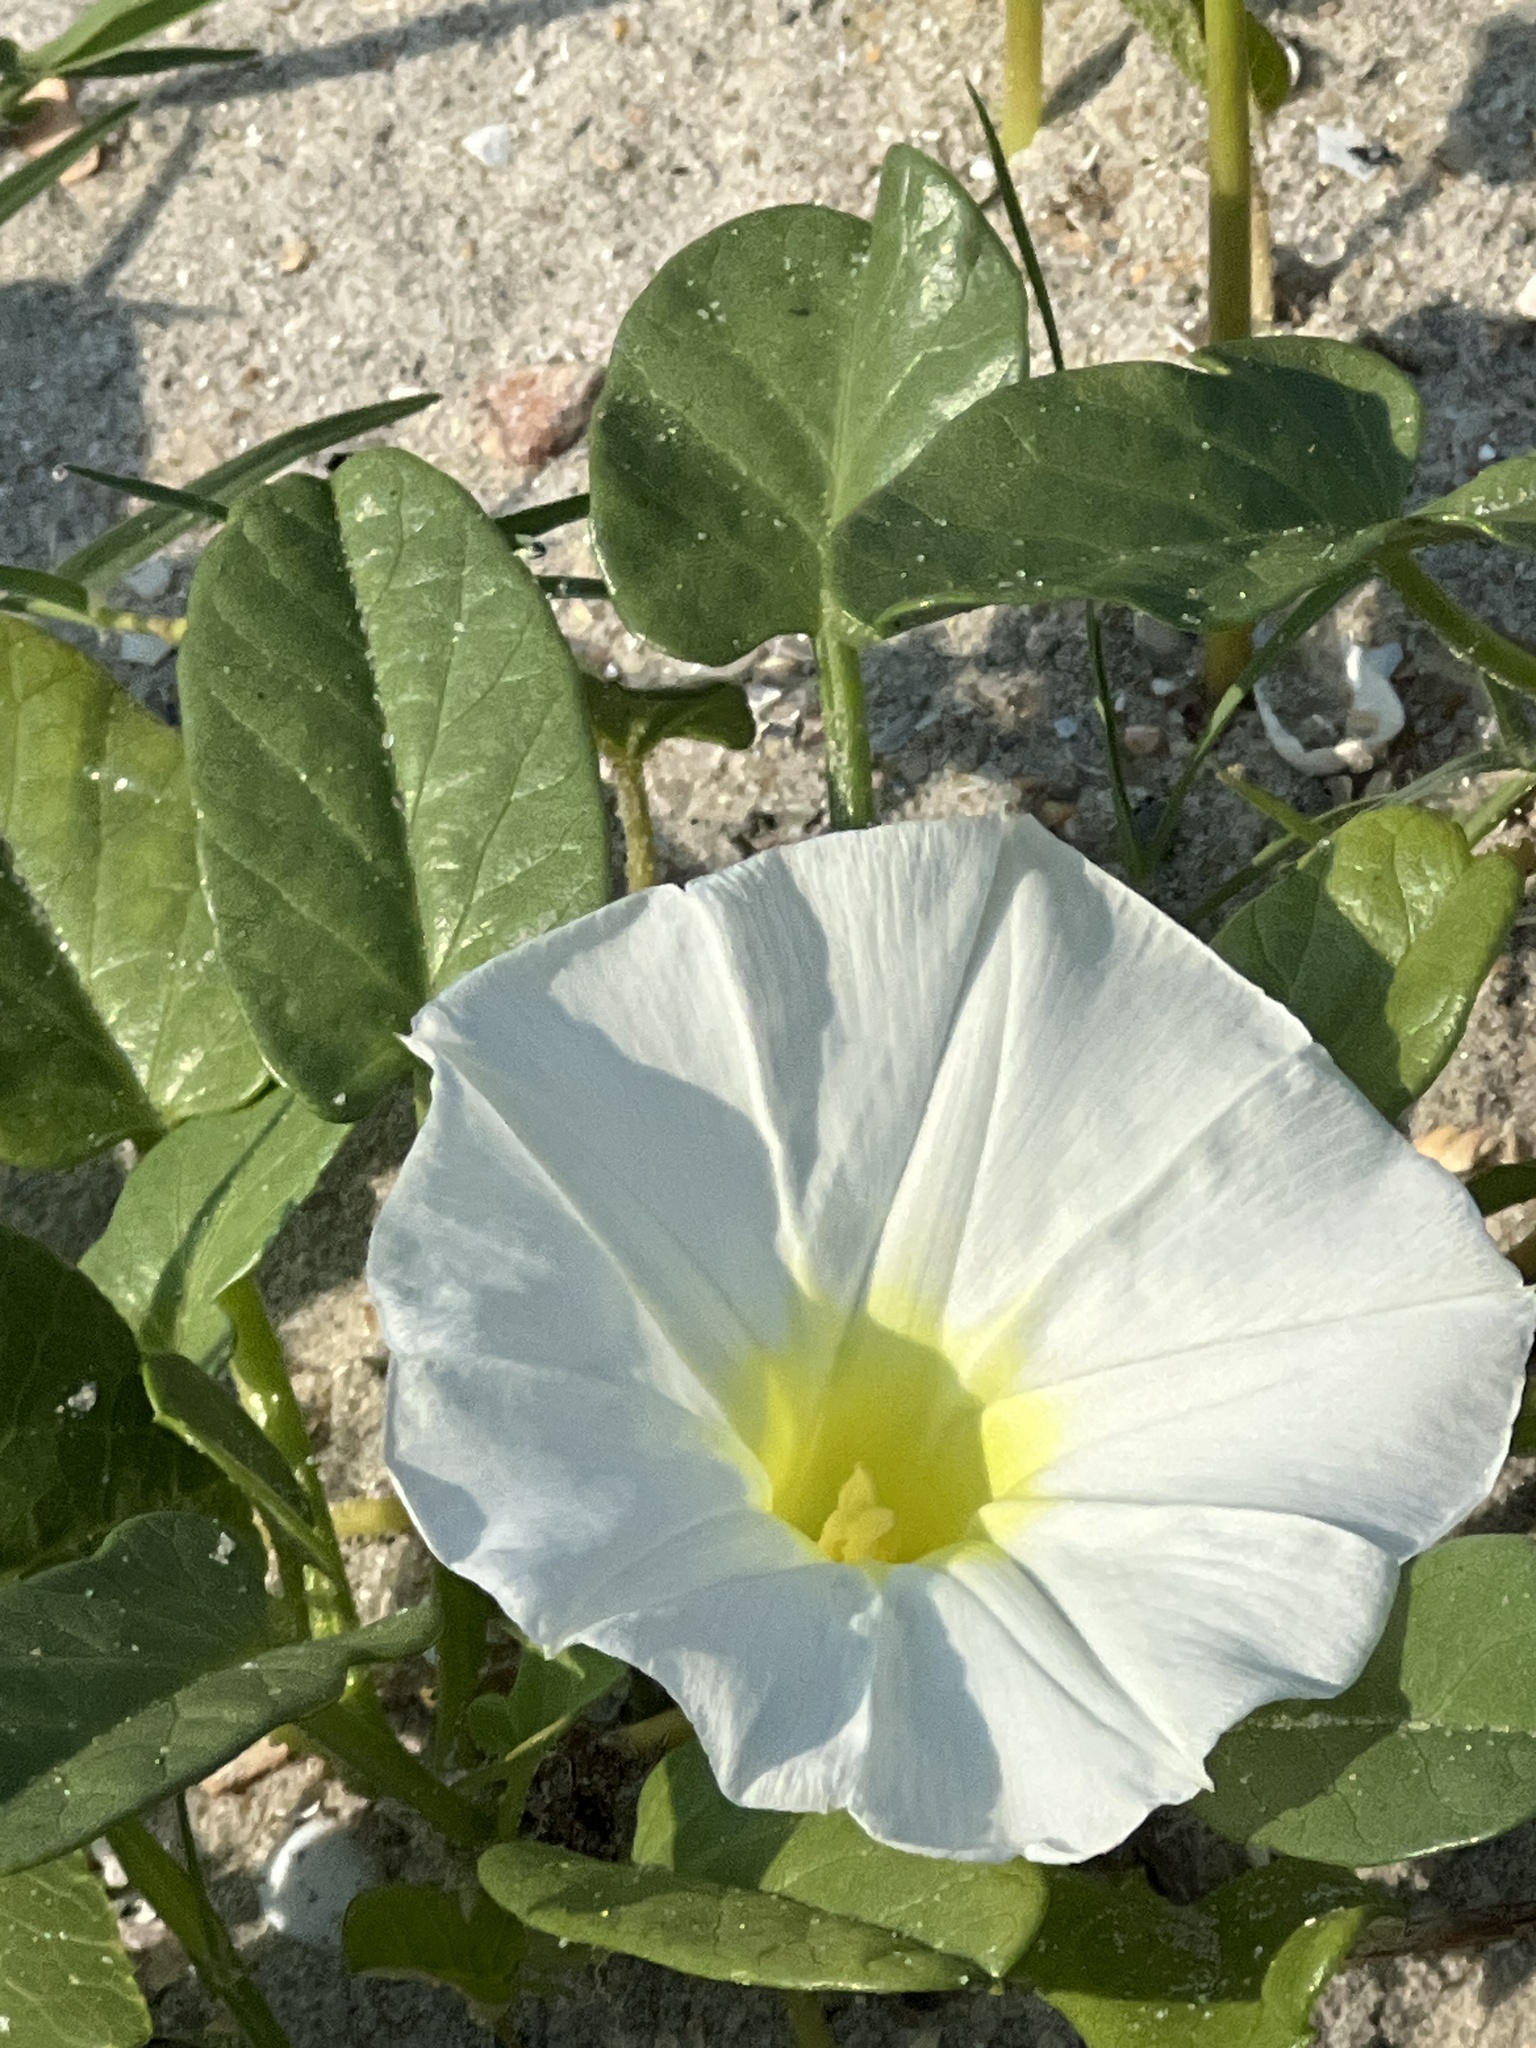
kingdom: Plantae
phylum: Tracheophyta
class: Magnoliopsida
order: Solanales
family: Convolvulaceae
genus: Ipomoea
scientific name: Ipomoea imperati
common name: Fiddle-leaf morning-glory
